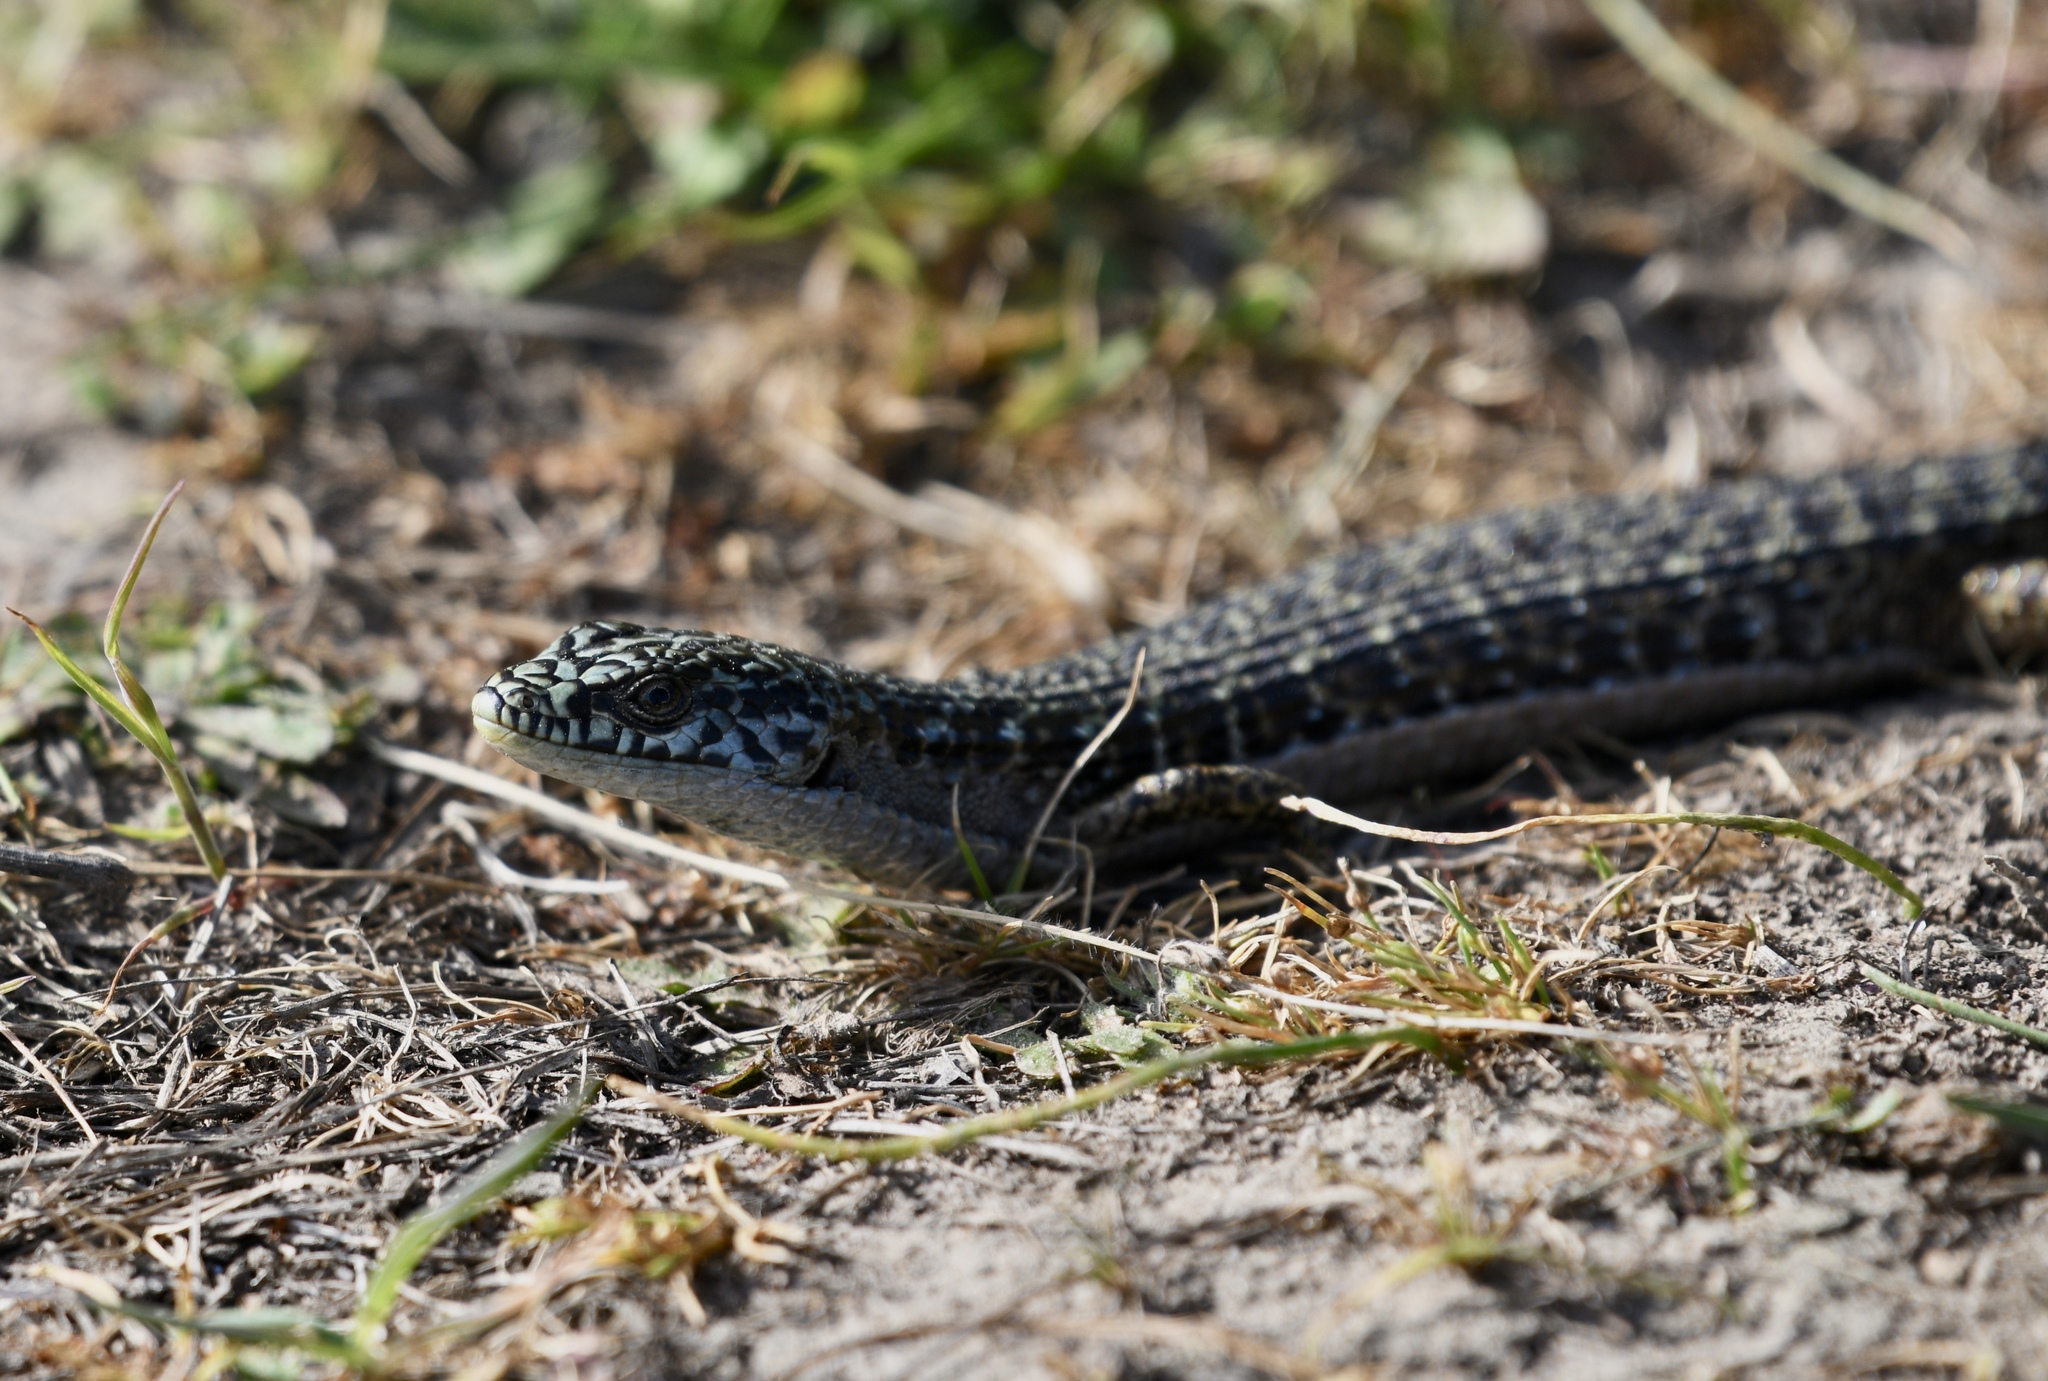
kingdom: Animalia
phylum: Chordata
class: Squamata
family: Anguidae
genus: Elgaria
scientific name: Elgaria coerulea
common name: Northern alligator lizard
